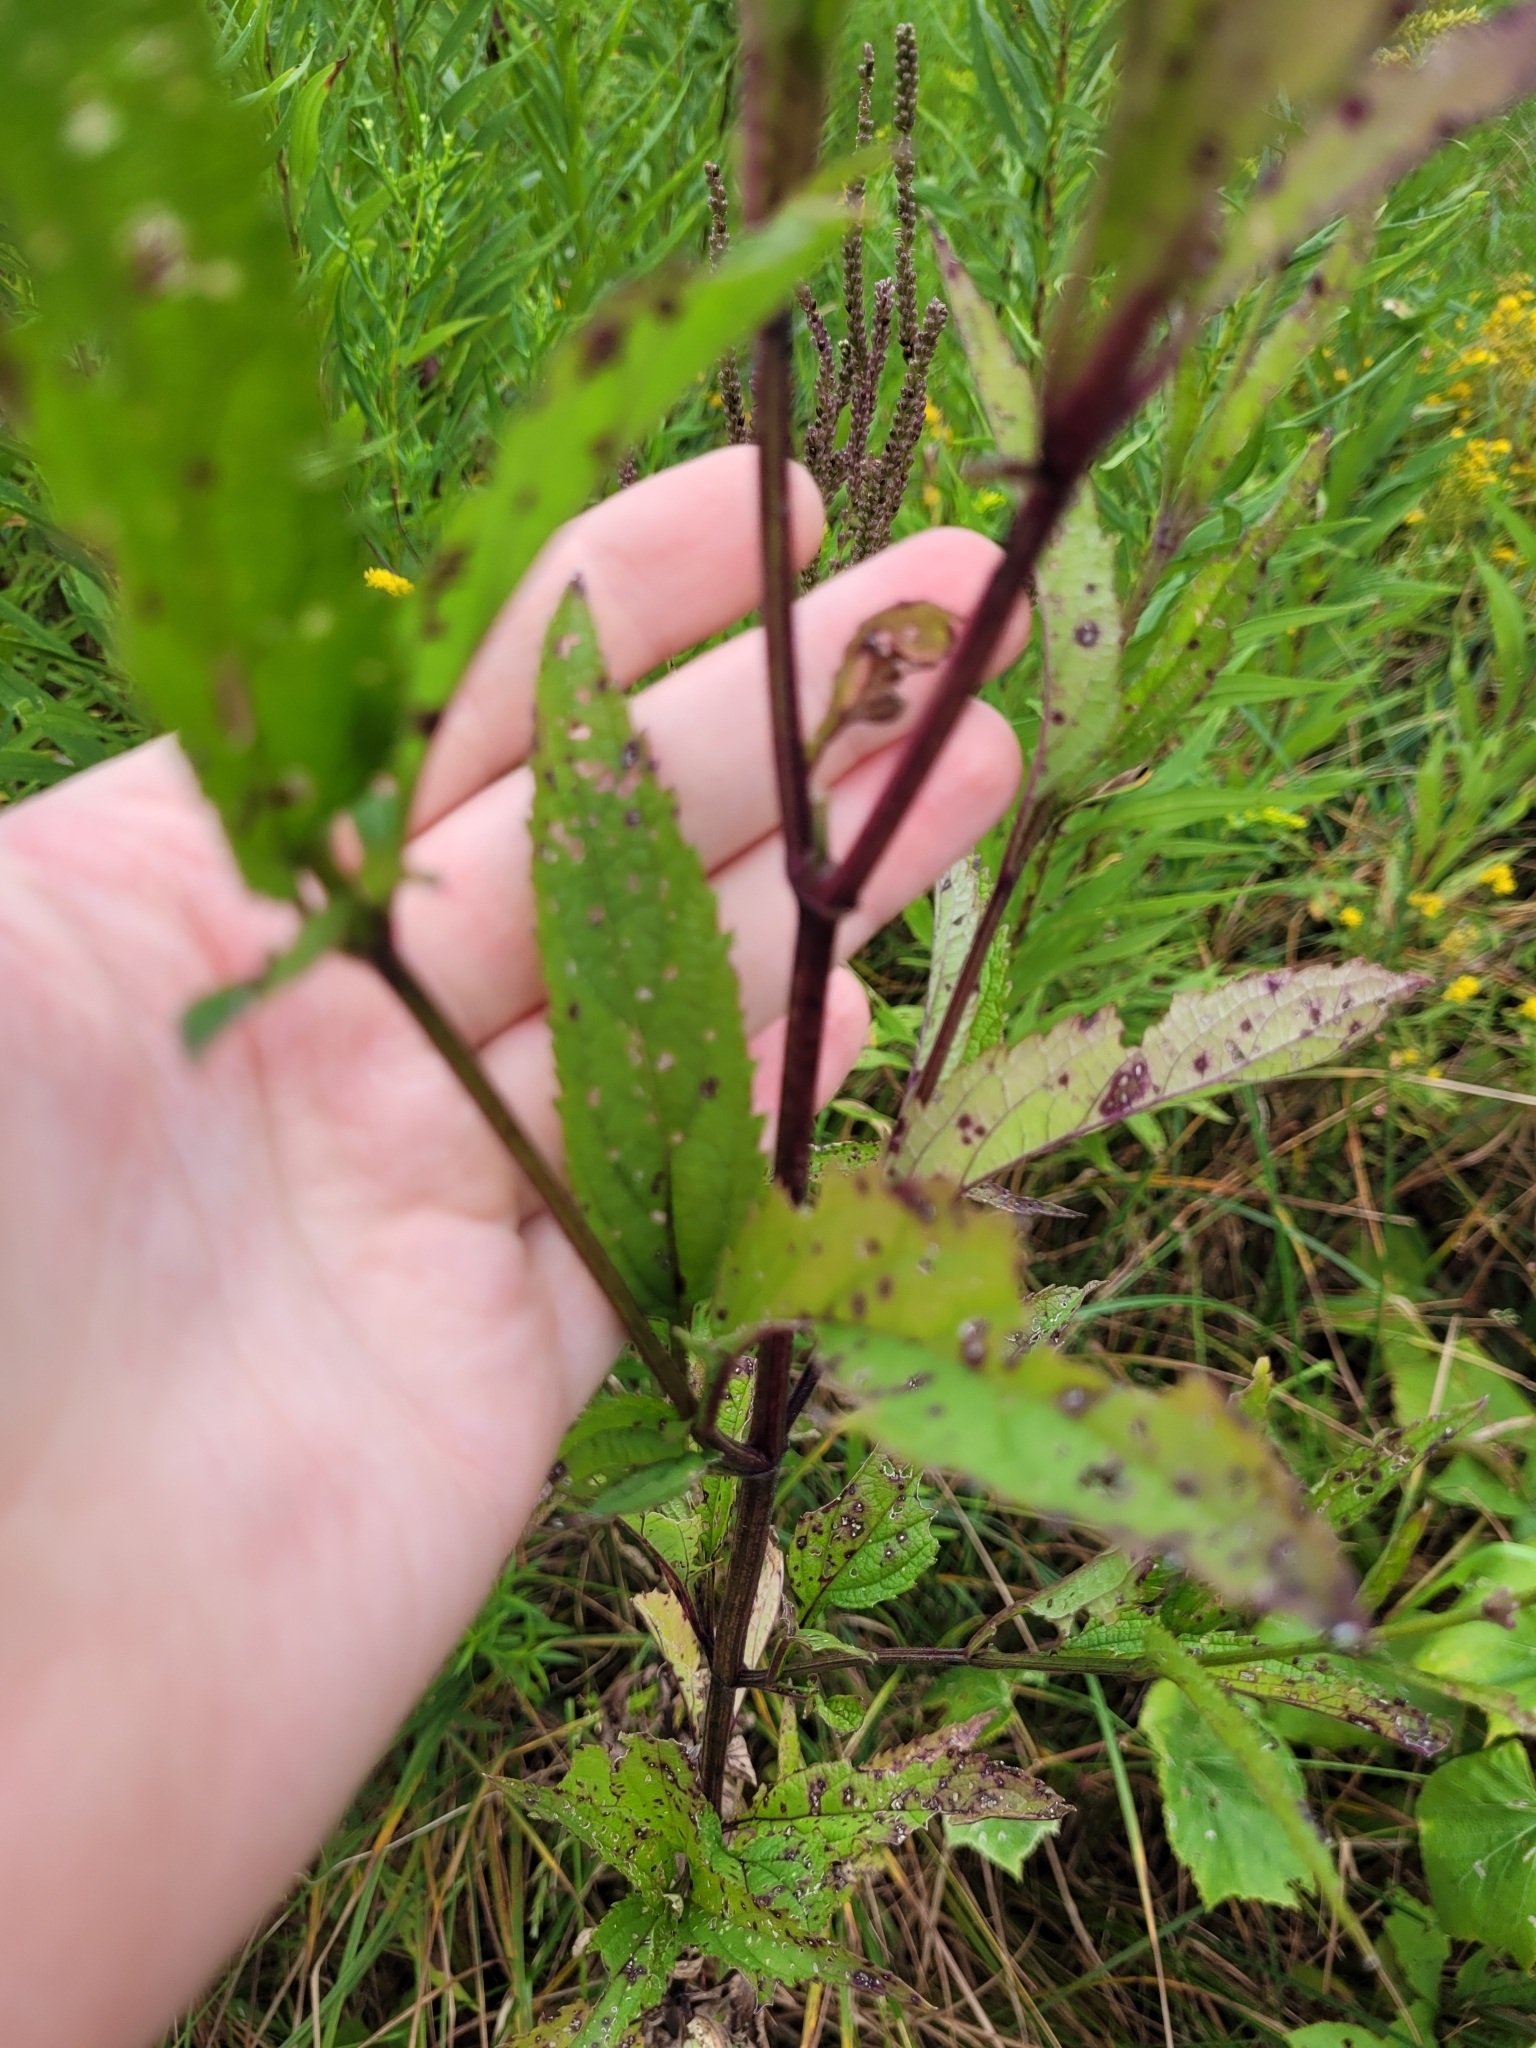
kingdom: Plantae
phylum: Tracheophyta
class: Magnoliopsida
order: Lamiales
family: Verbenaceae
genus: Verbena
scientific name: Verbena hastata
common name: American blue vervain
